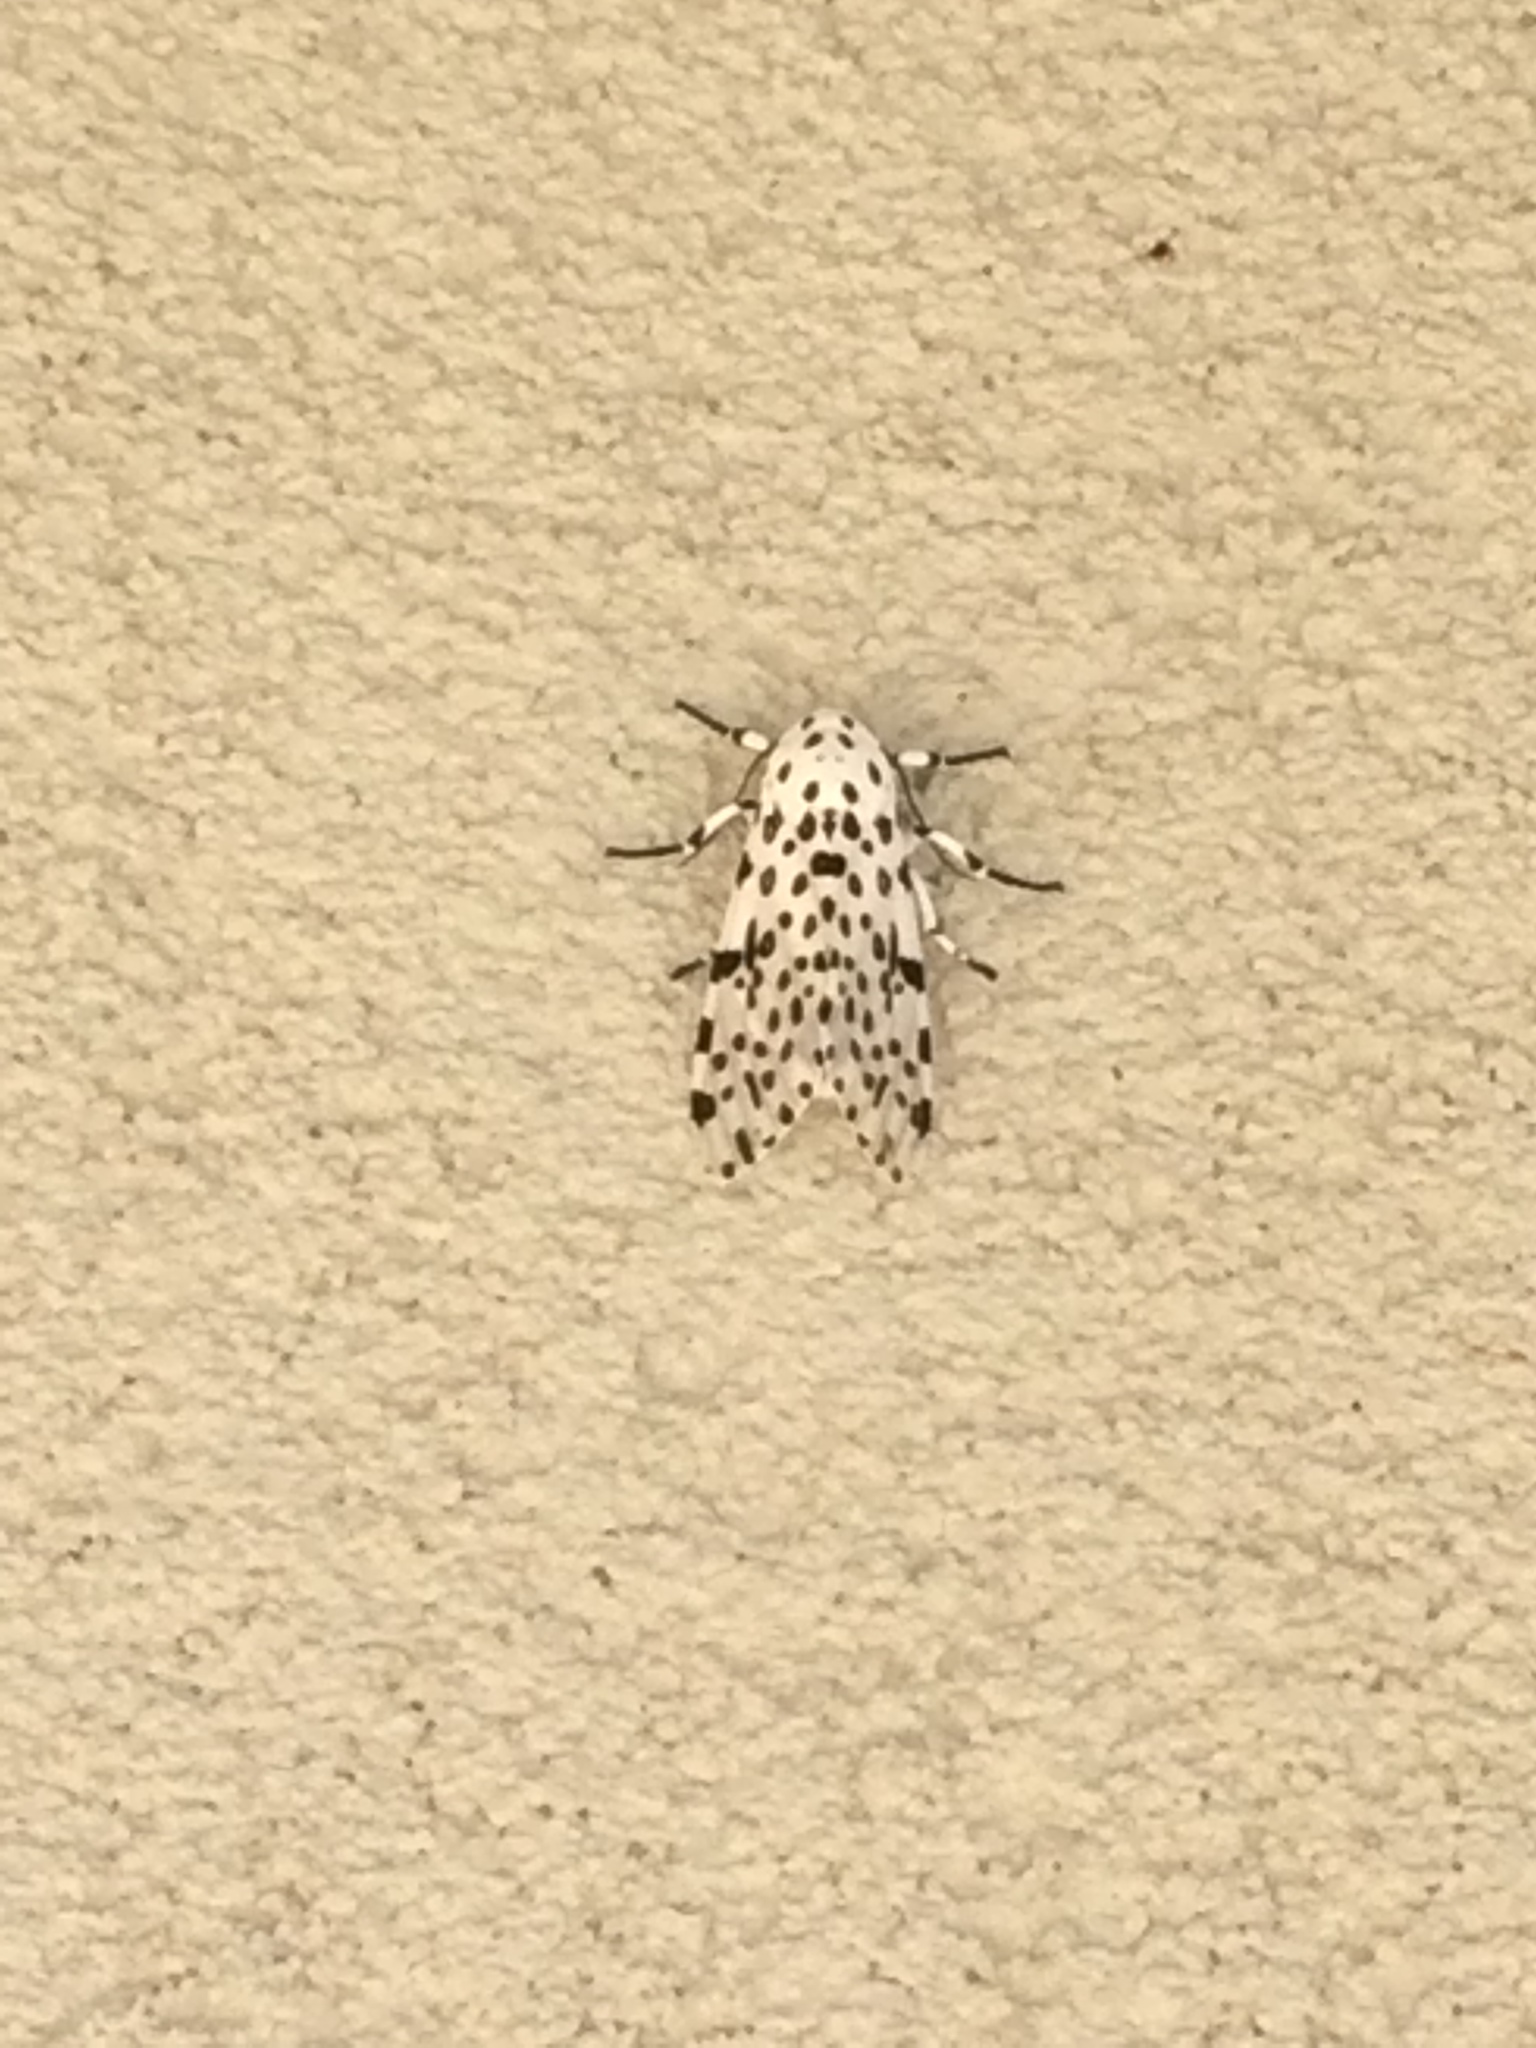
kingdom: Animalia
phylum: Arthropoda
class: Insecta
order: Lepidoptera
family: Erebidae
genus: Hypercompe
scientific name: Hypercompe scribonia
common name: Giant leopard moth
